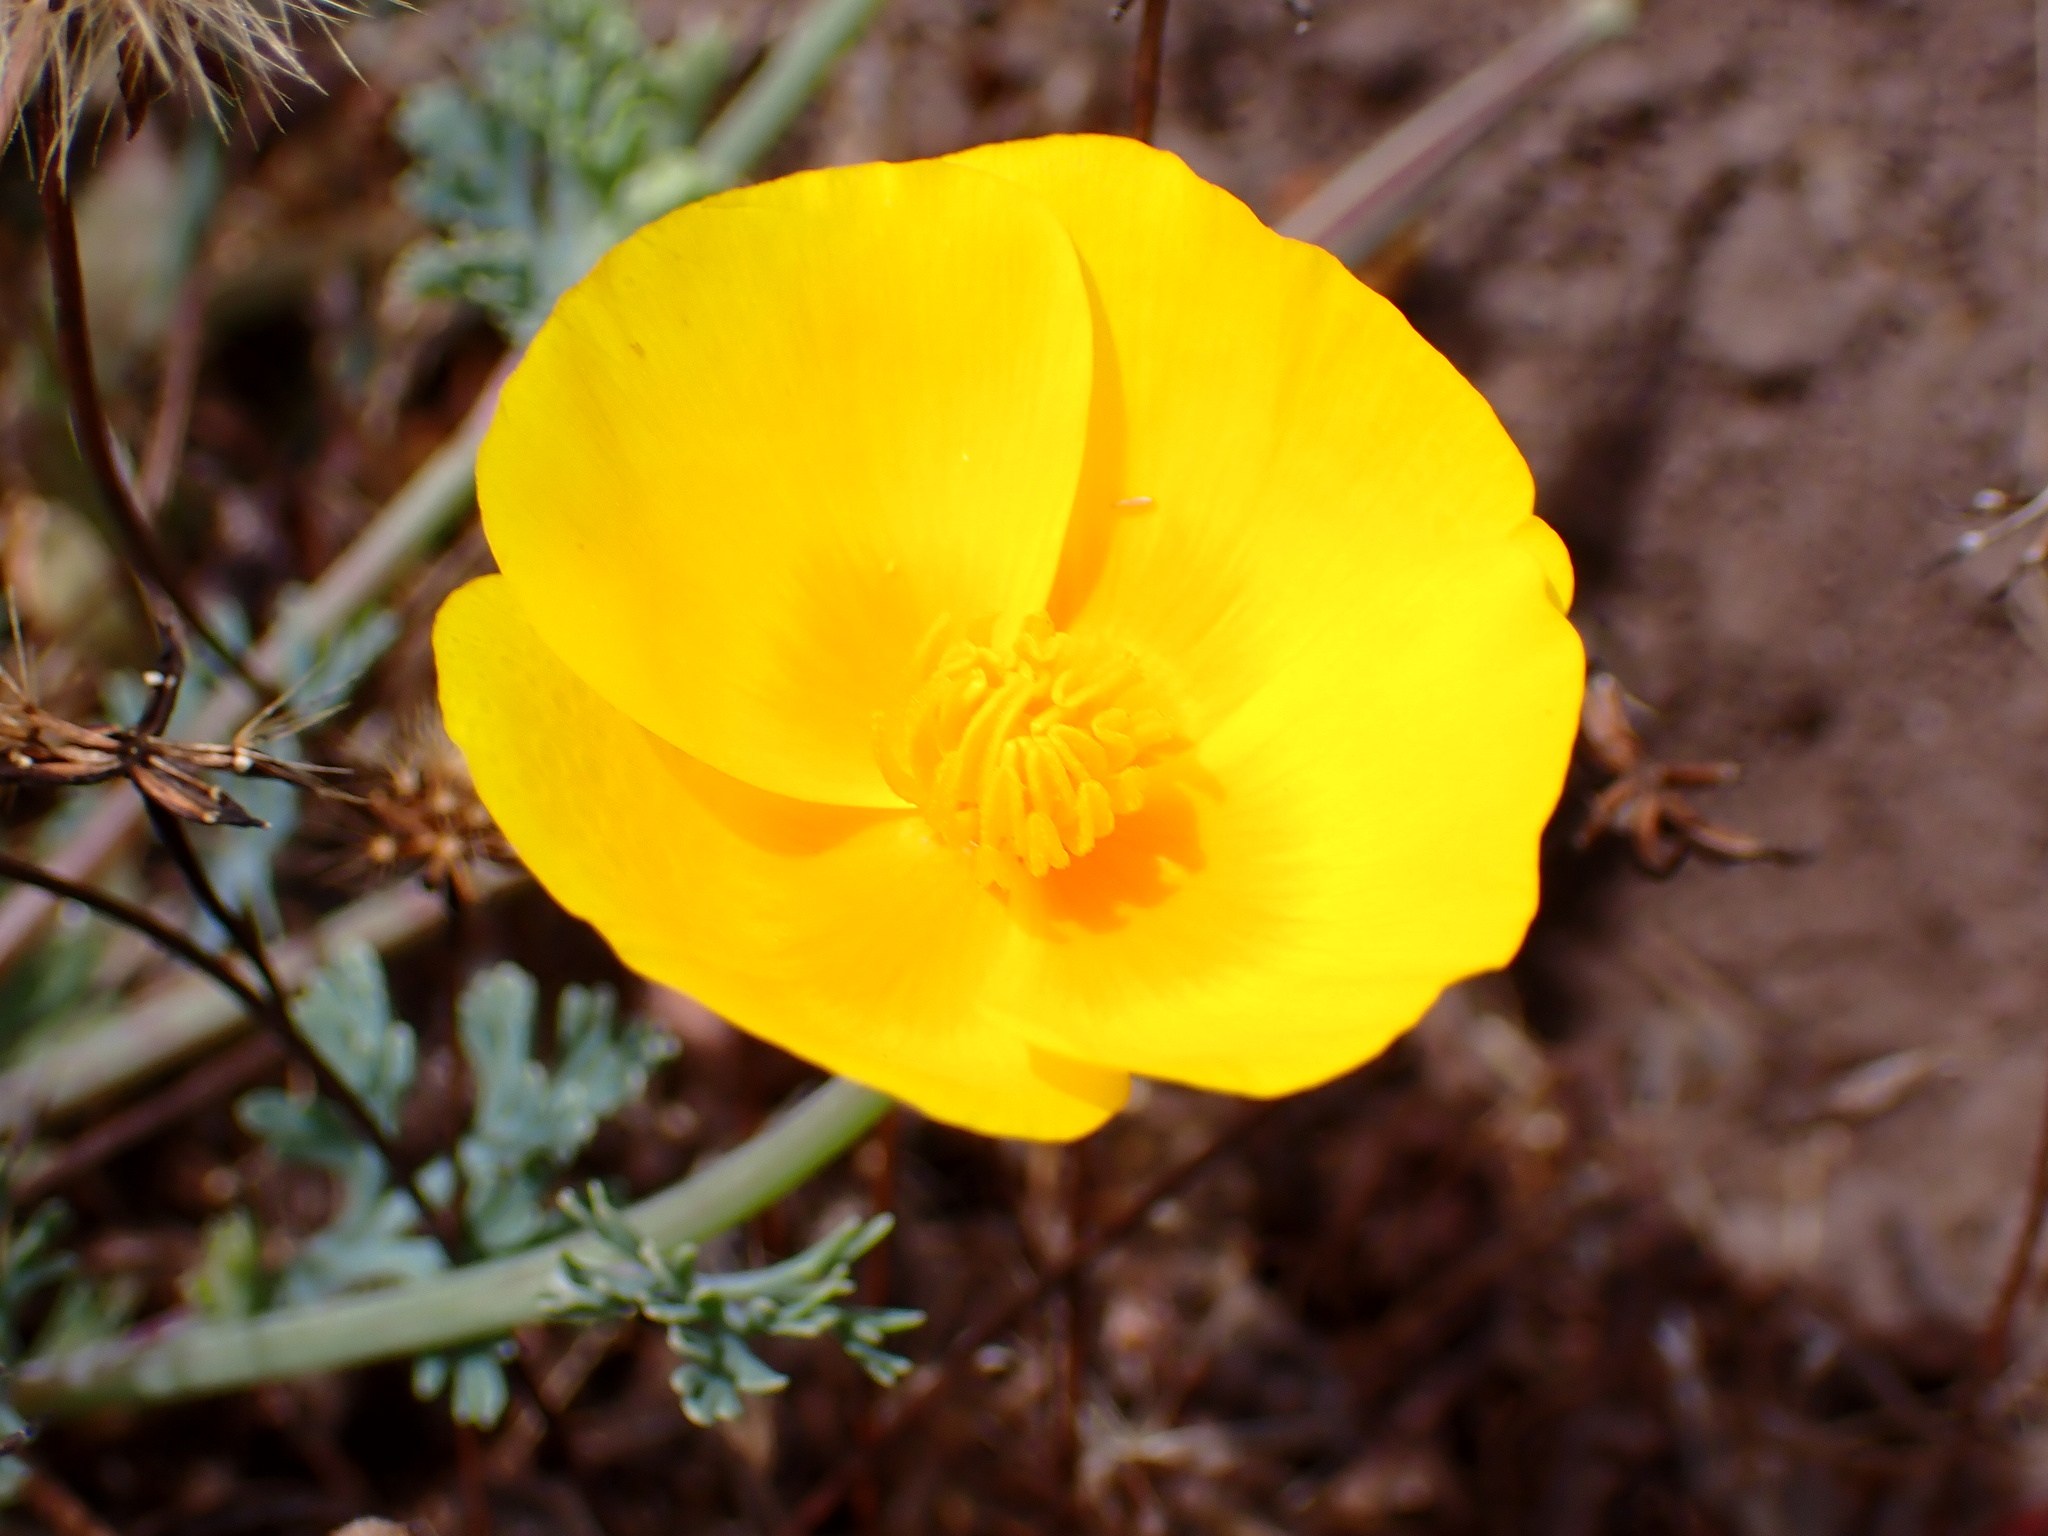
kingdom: Plantae
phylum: Tracheophyta
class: Magnoliopsida
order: Ranunculales
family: Papaveraceae
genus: Eschscholzia
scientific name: Eschscholzia californica
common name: California poppy
